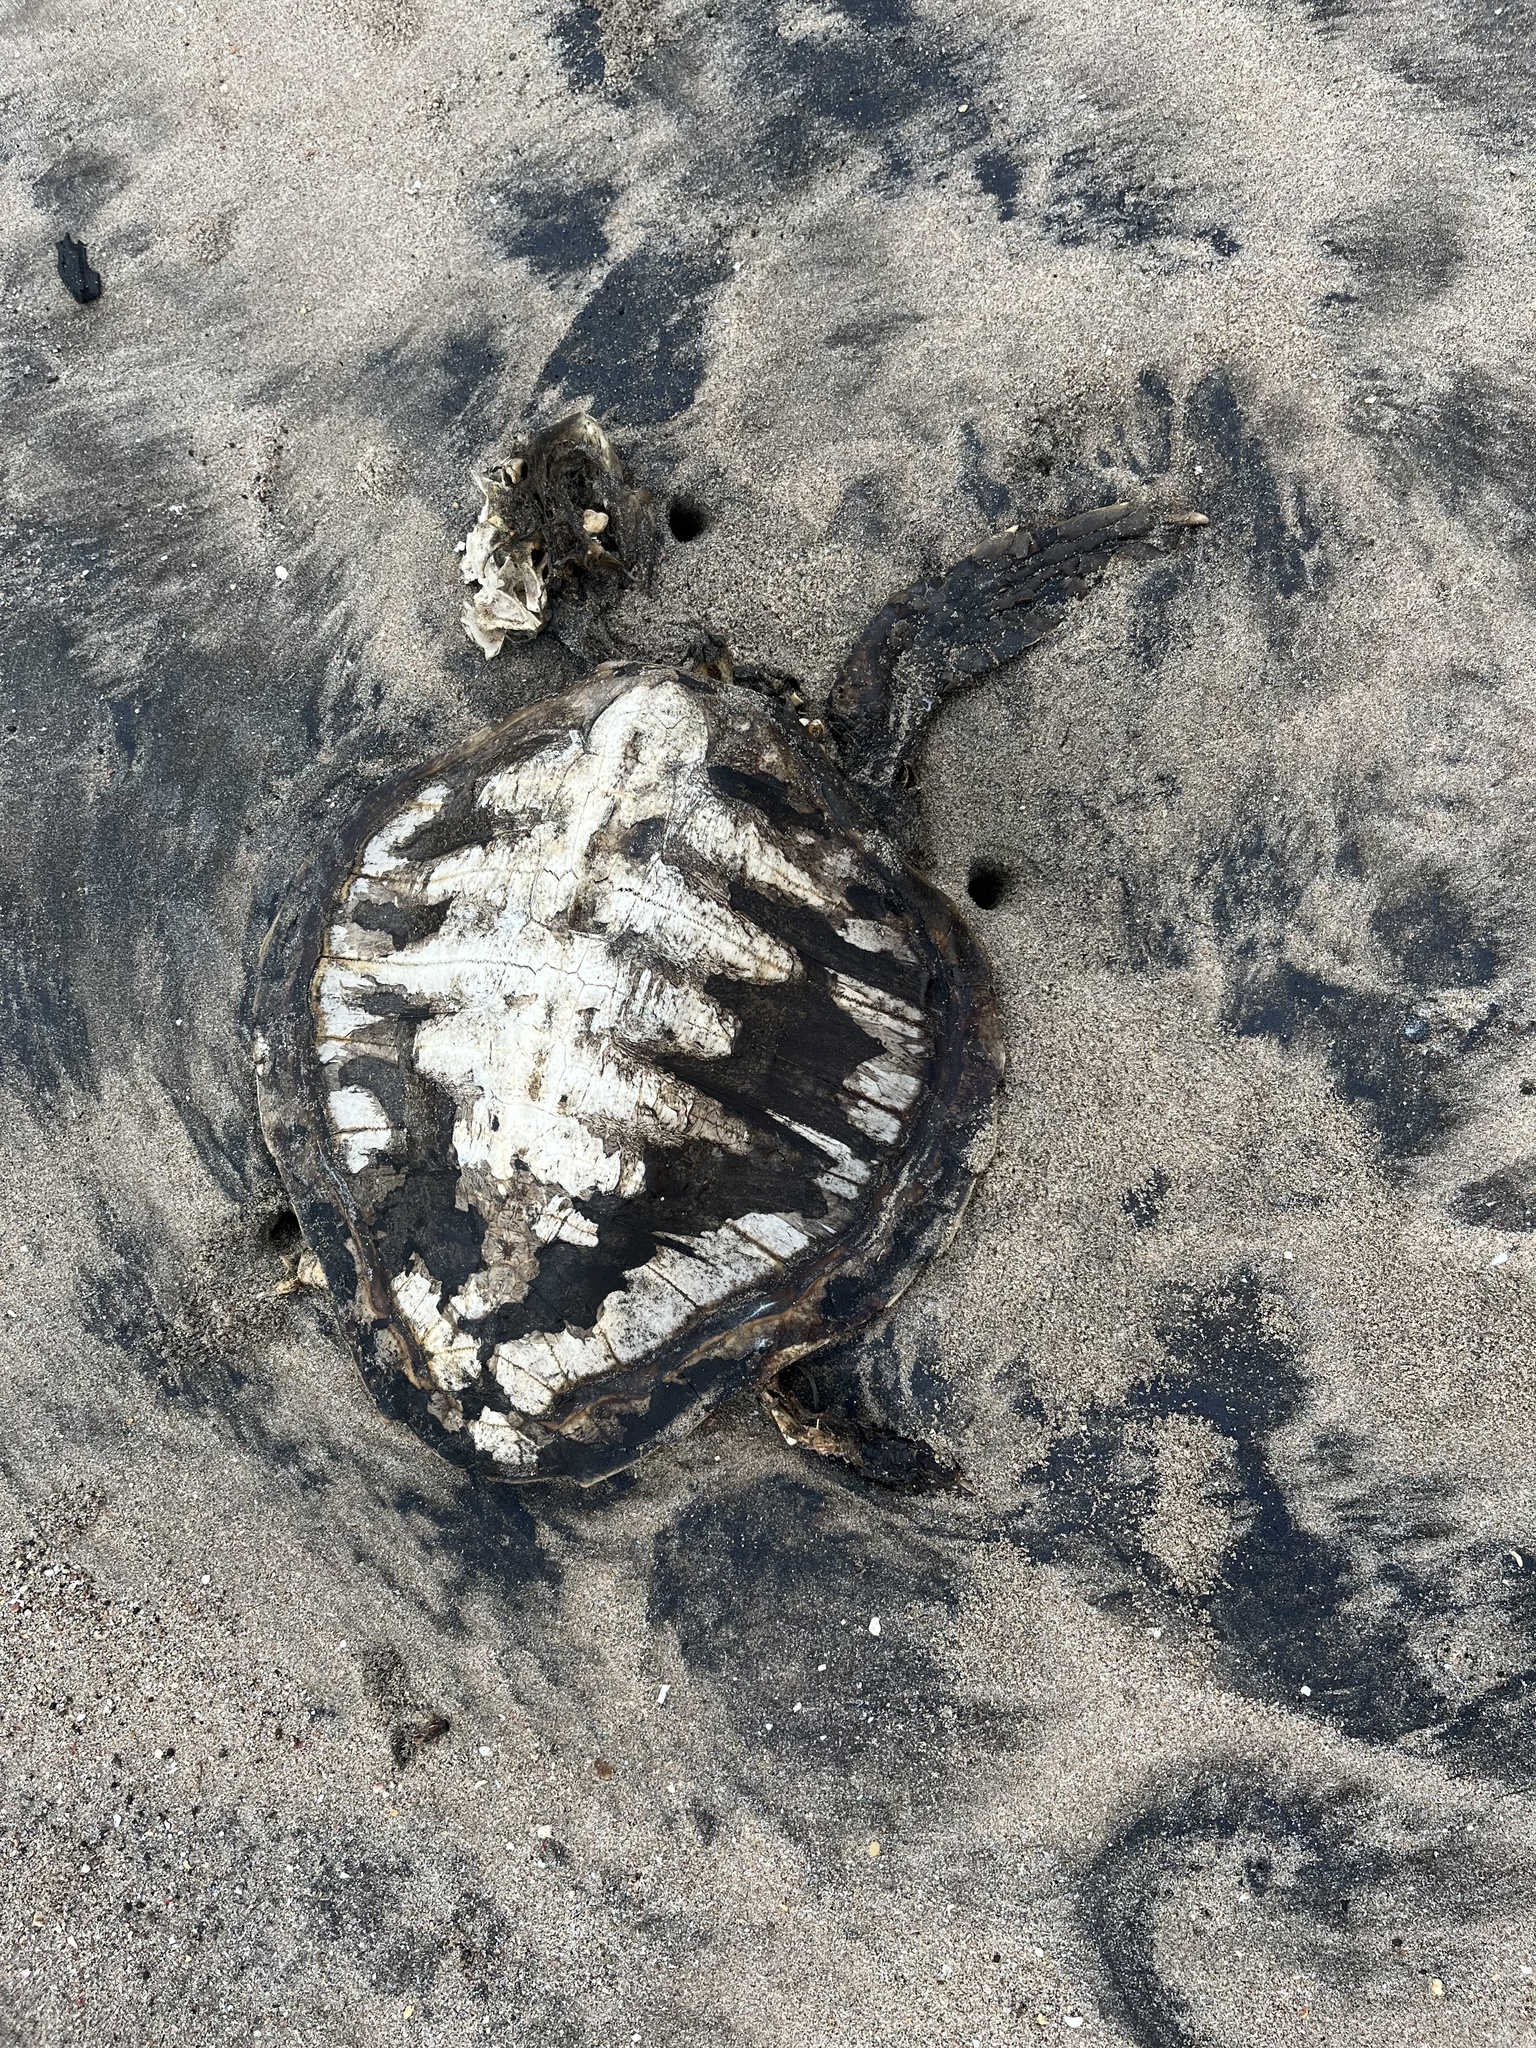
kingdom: Animalia
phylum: Chordata
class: Testudines
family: Cheloniidae
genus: Lepidochelys
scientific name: Lepidochelys olivacea
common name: Olive ridley
